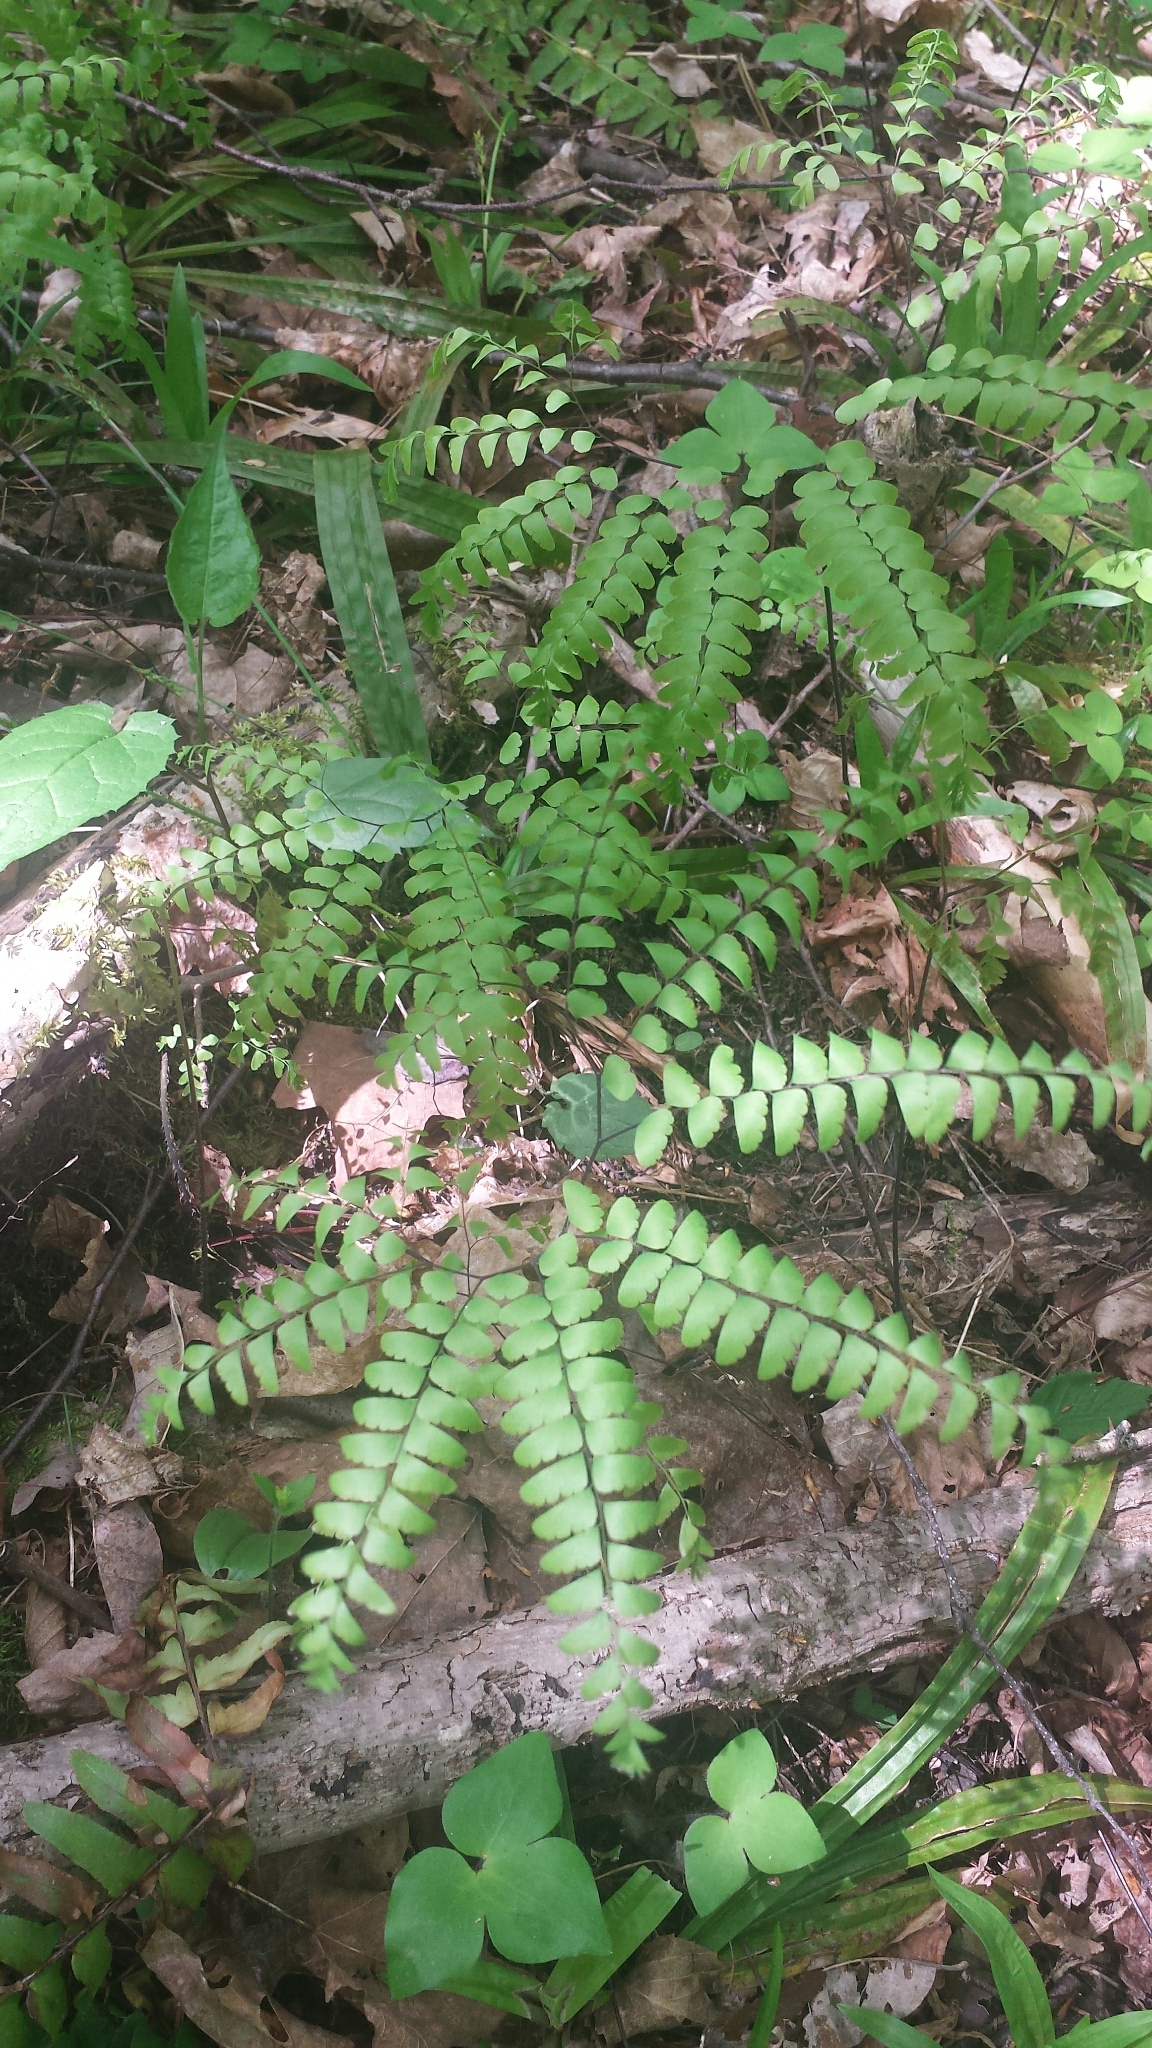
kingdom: Plantae
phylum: Tracheophyta
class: Polypodiopsida
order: Polypodiales
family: Pteridaceae
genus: Adiantum
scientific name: Adiantum pedatum
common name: Five-finger fern
